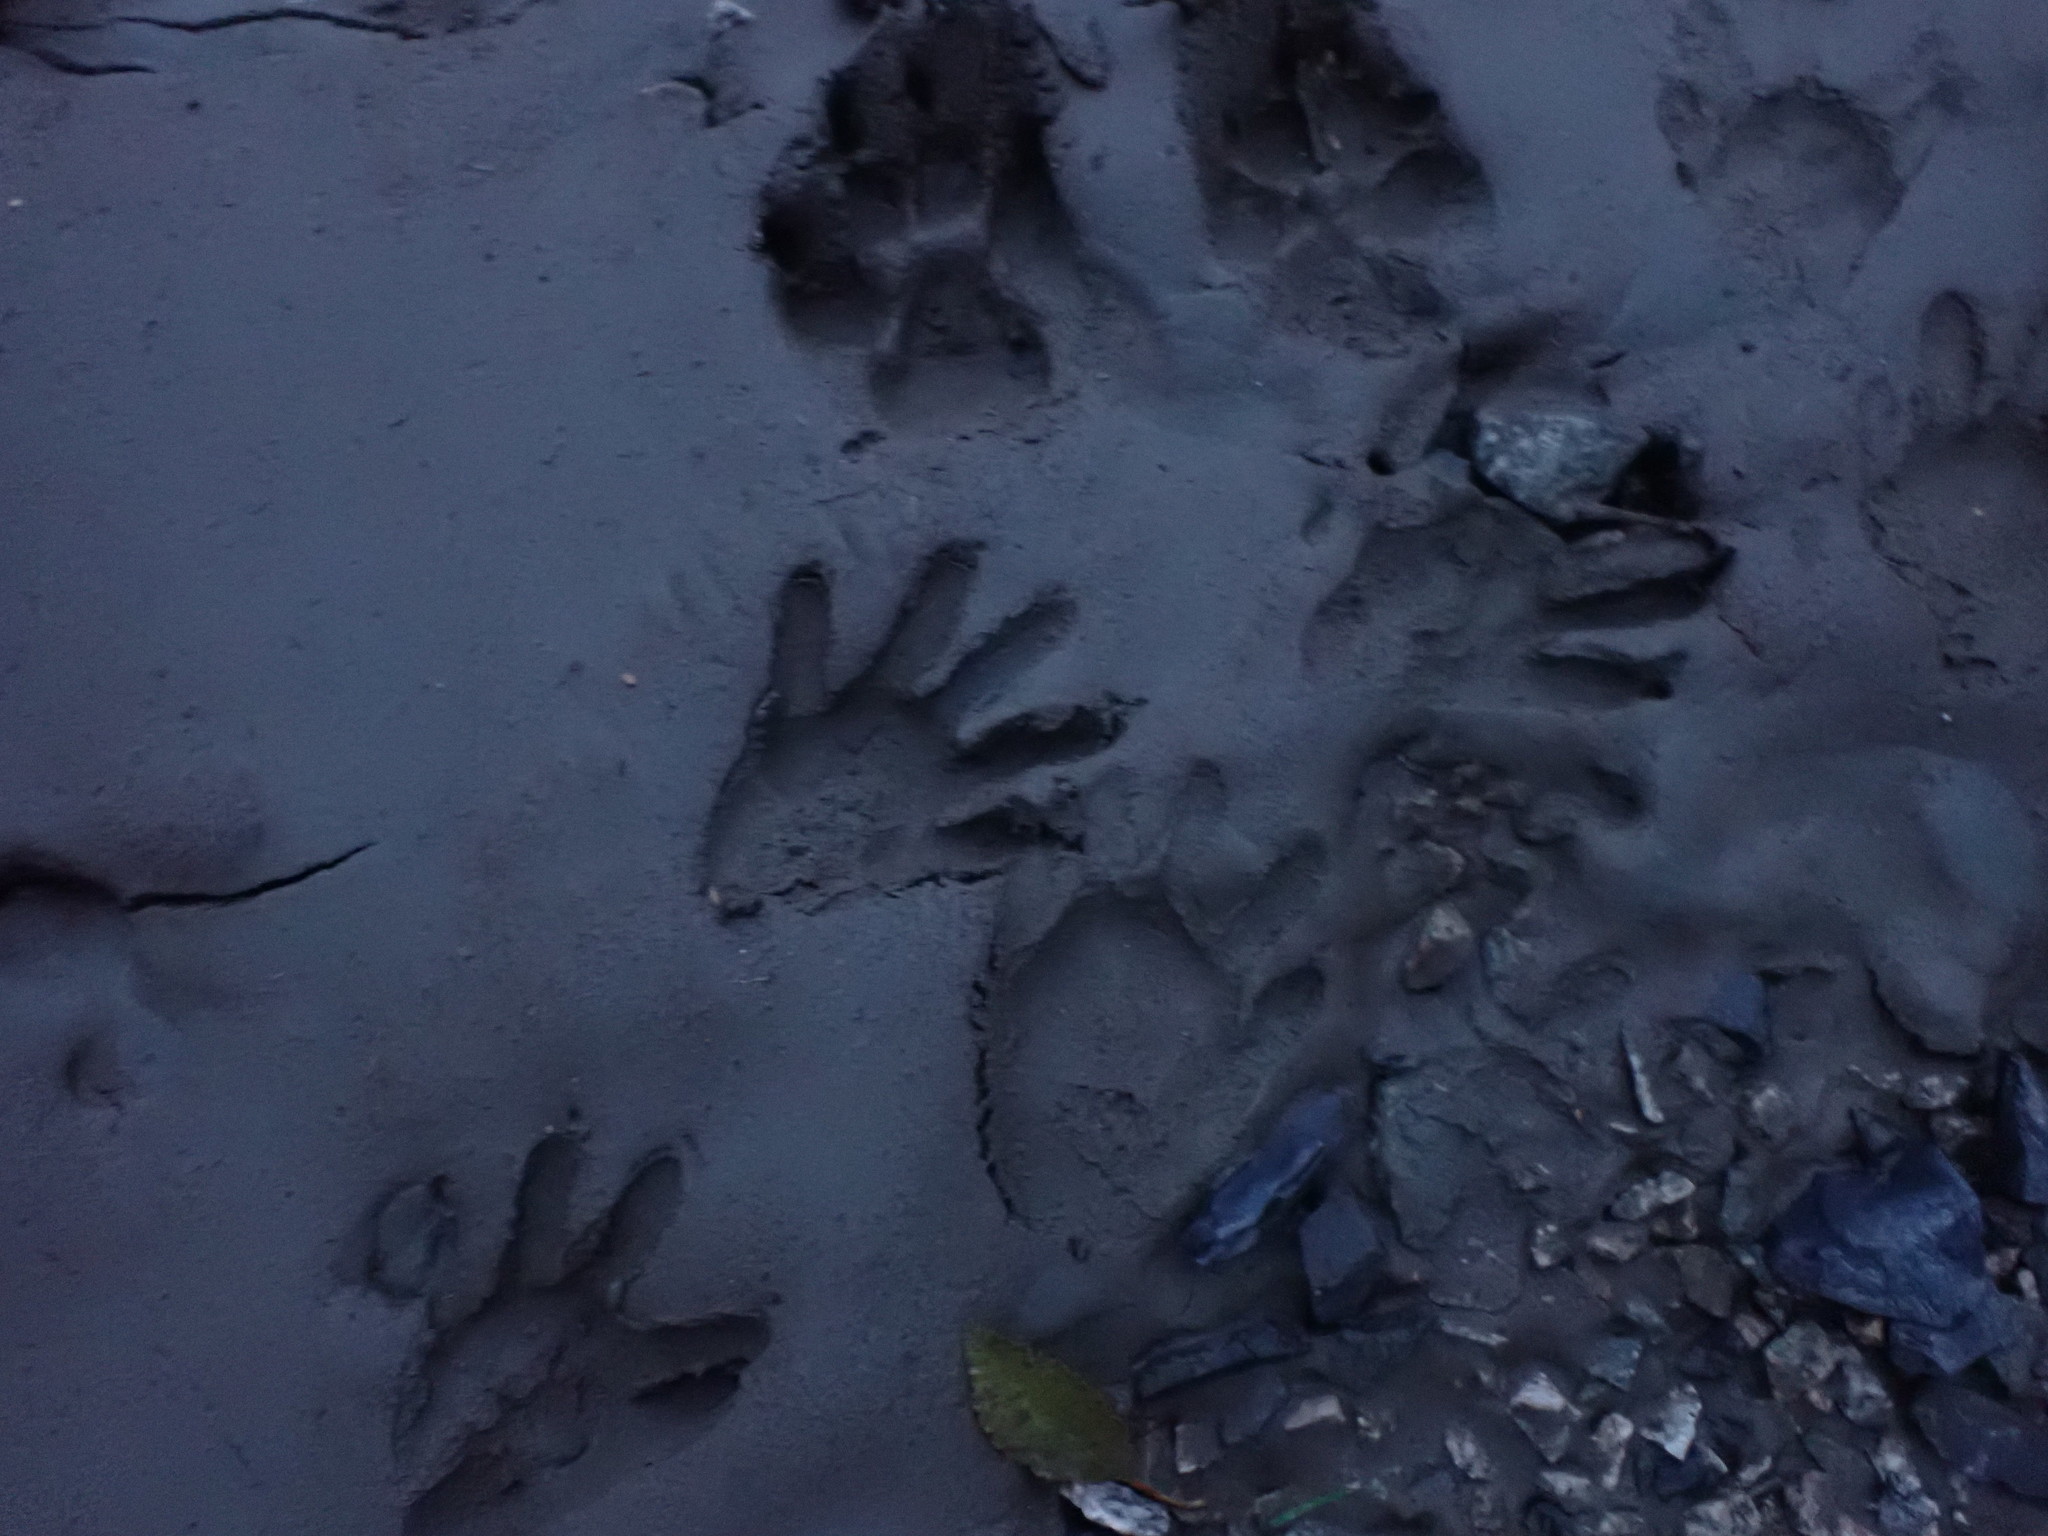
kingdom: Animalia
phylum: Chordata
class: Mammalia
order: Carnivora
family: Procyonidae
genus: Procyon
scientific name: Procyon lotor
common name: Raccoon
